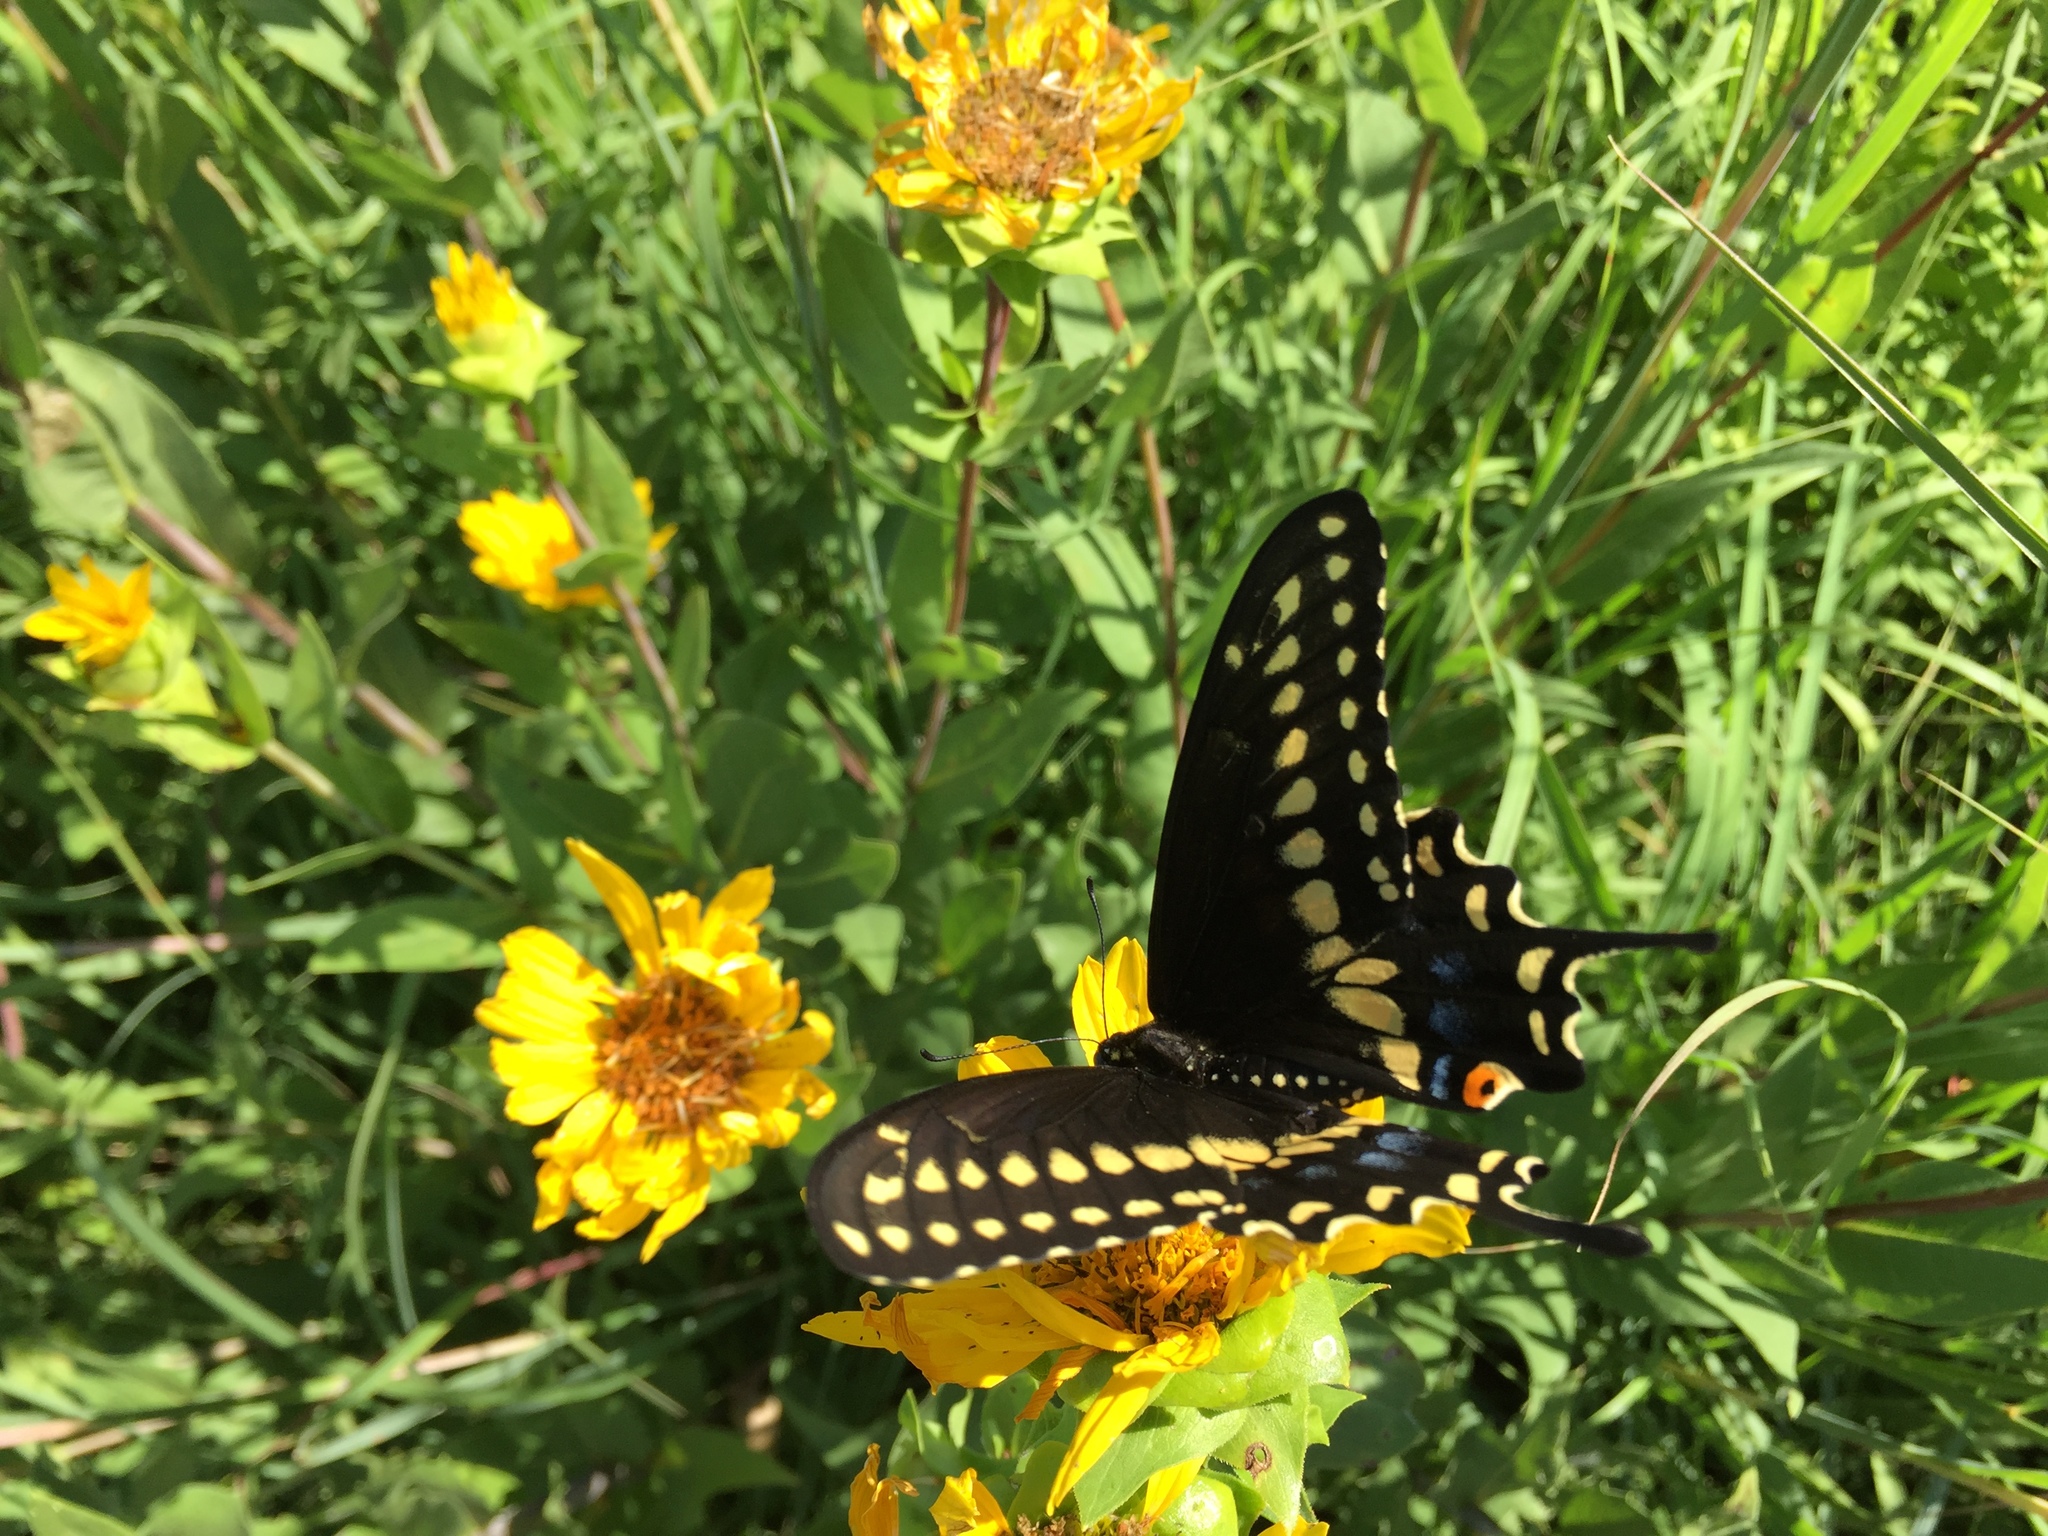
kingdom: Animalia
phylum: Arthropoda
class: Insecta
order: Lepidoptera
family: Papilionidae
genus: Papilio
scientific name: Papilio polyxenes
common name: Black swallowtail
